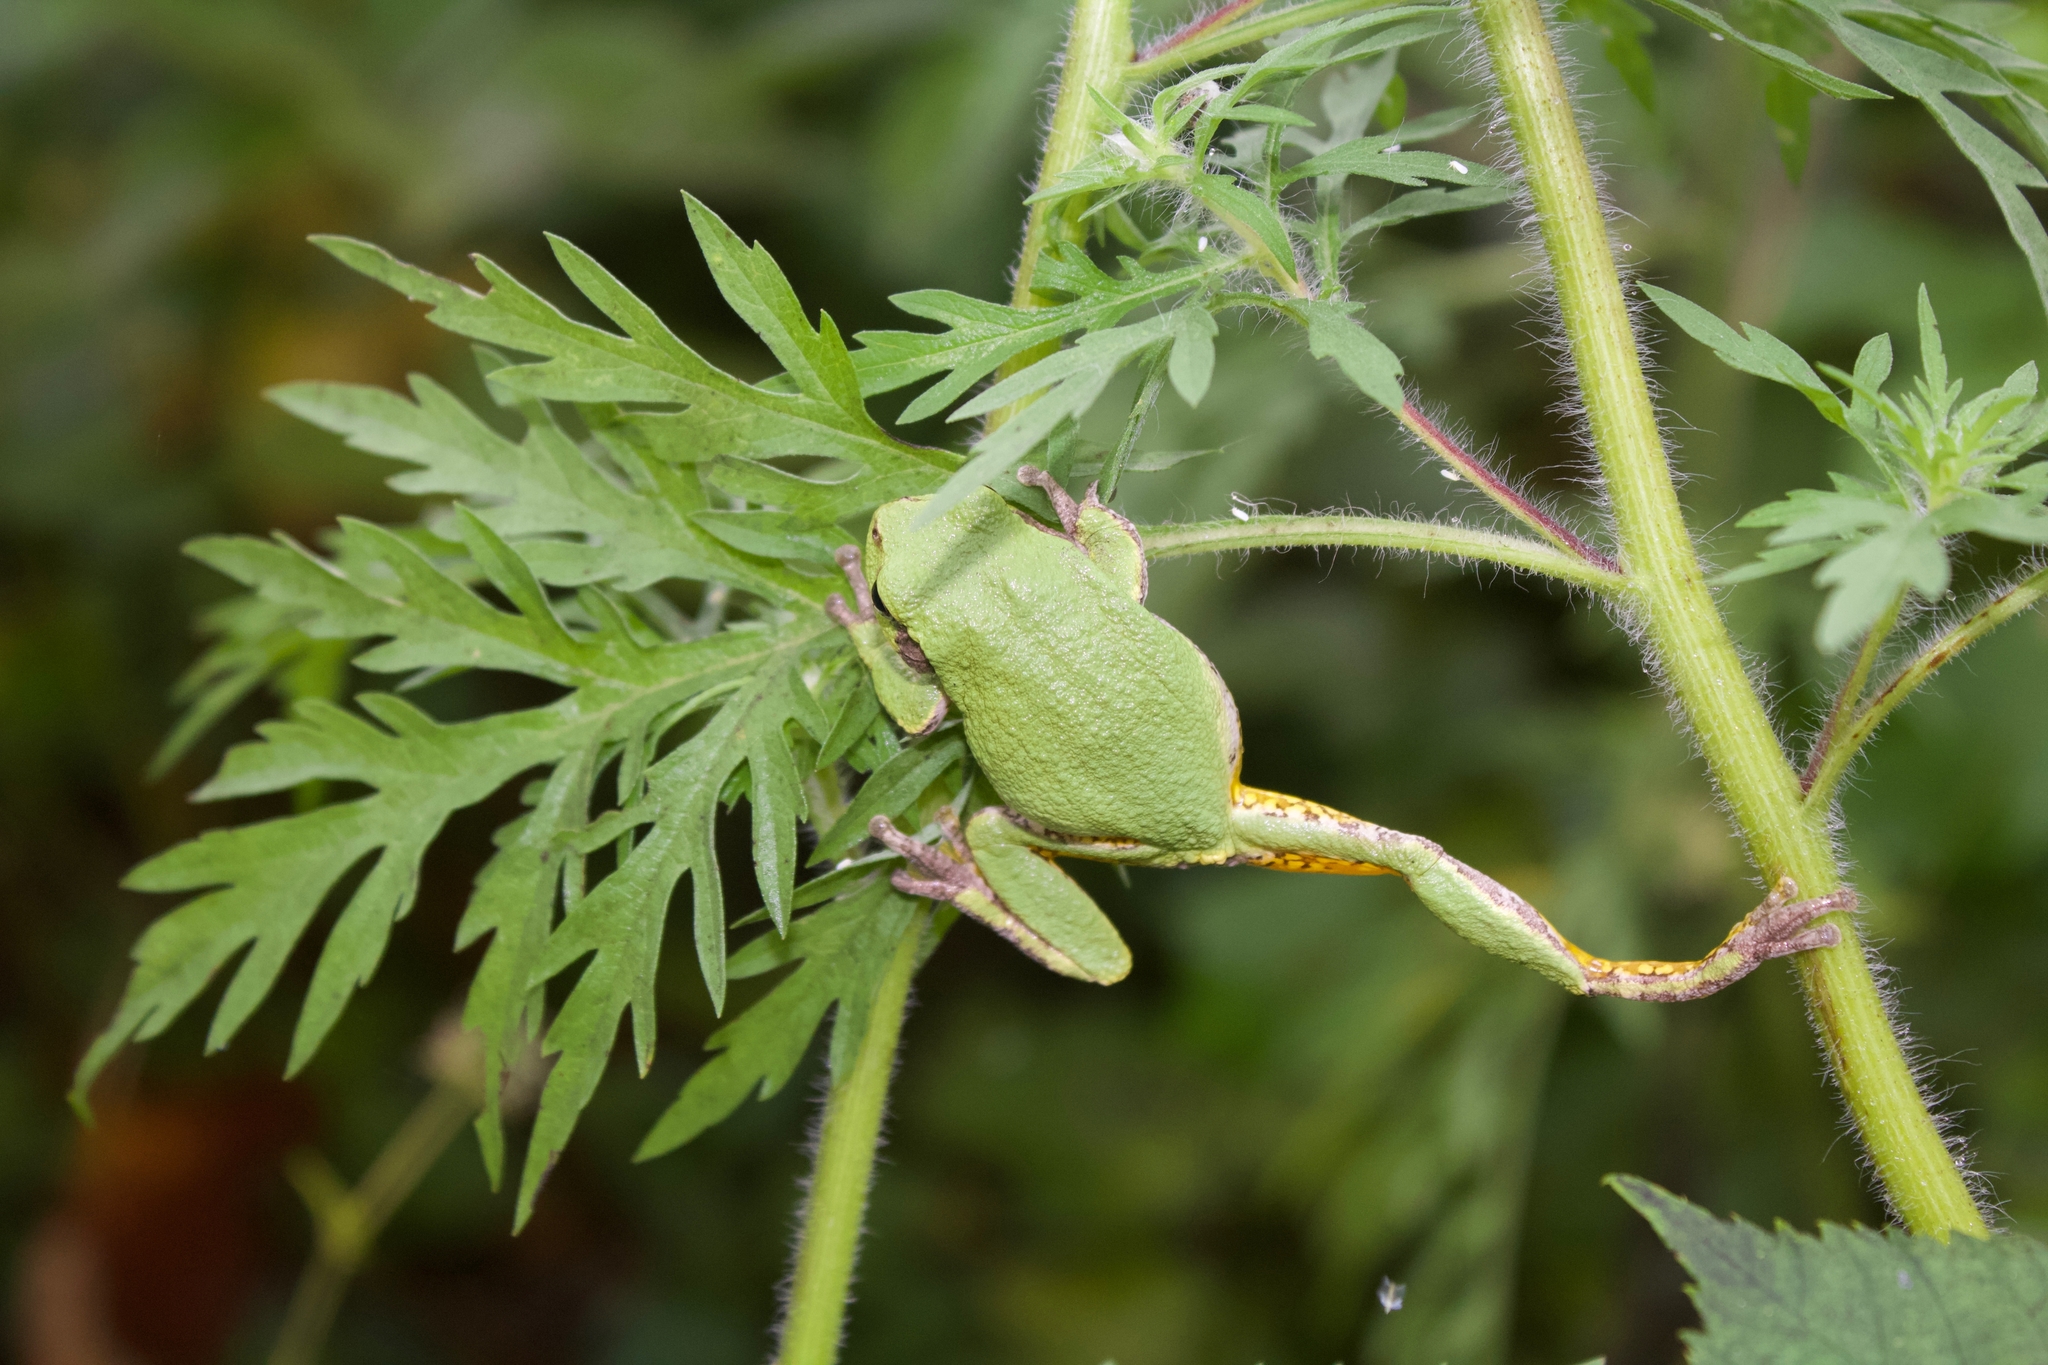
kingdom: Animalia
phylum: Chordata
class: Amphibia
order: Anura
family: Hylidae
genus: Hyla
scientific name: Hyla
